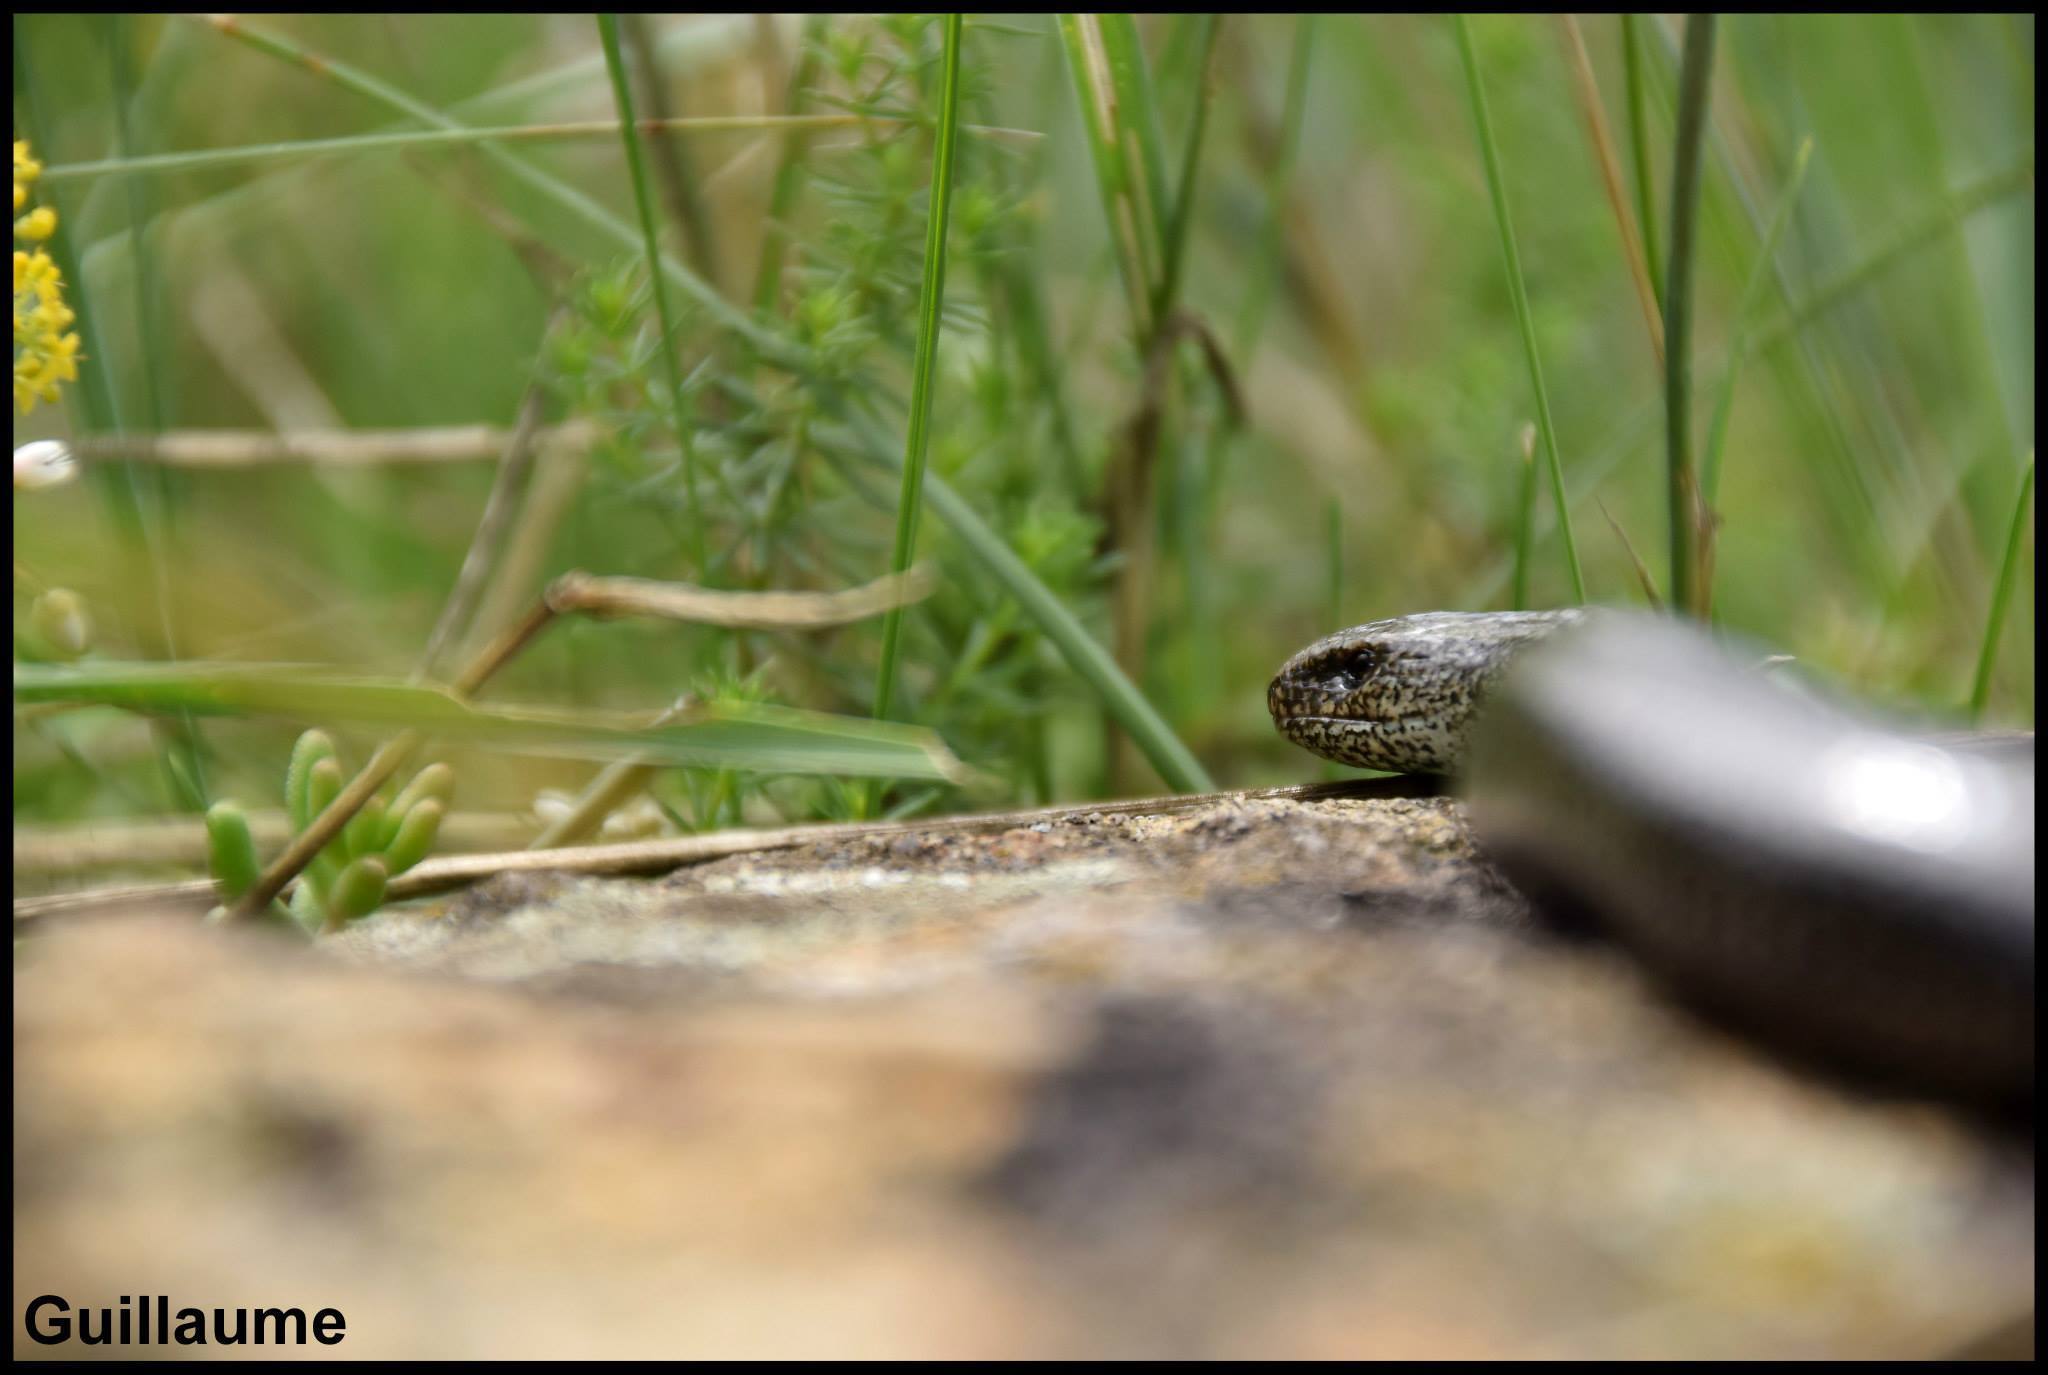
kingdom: Animalia
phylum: Chordata
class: Squamata
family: Anguidae
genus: Anguis
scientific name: Anguis fragilis
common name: Slow worm
